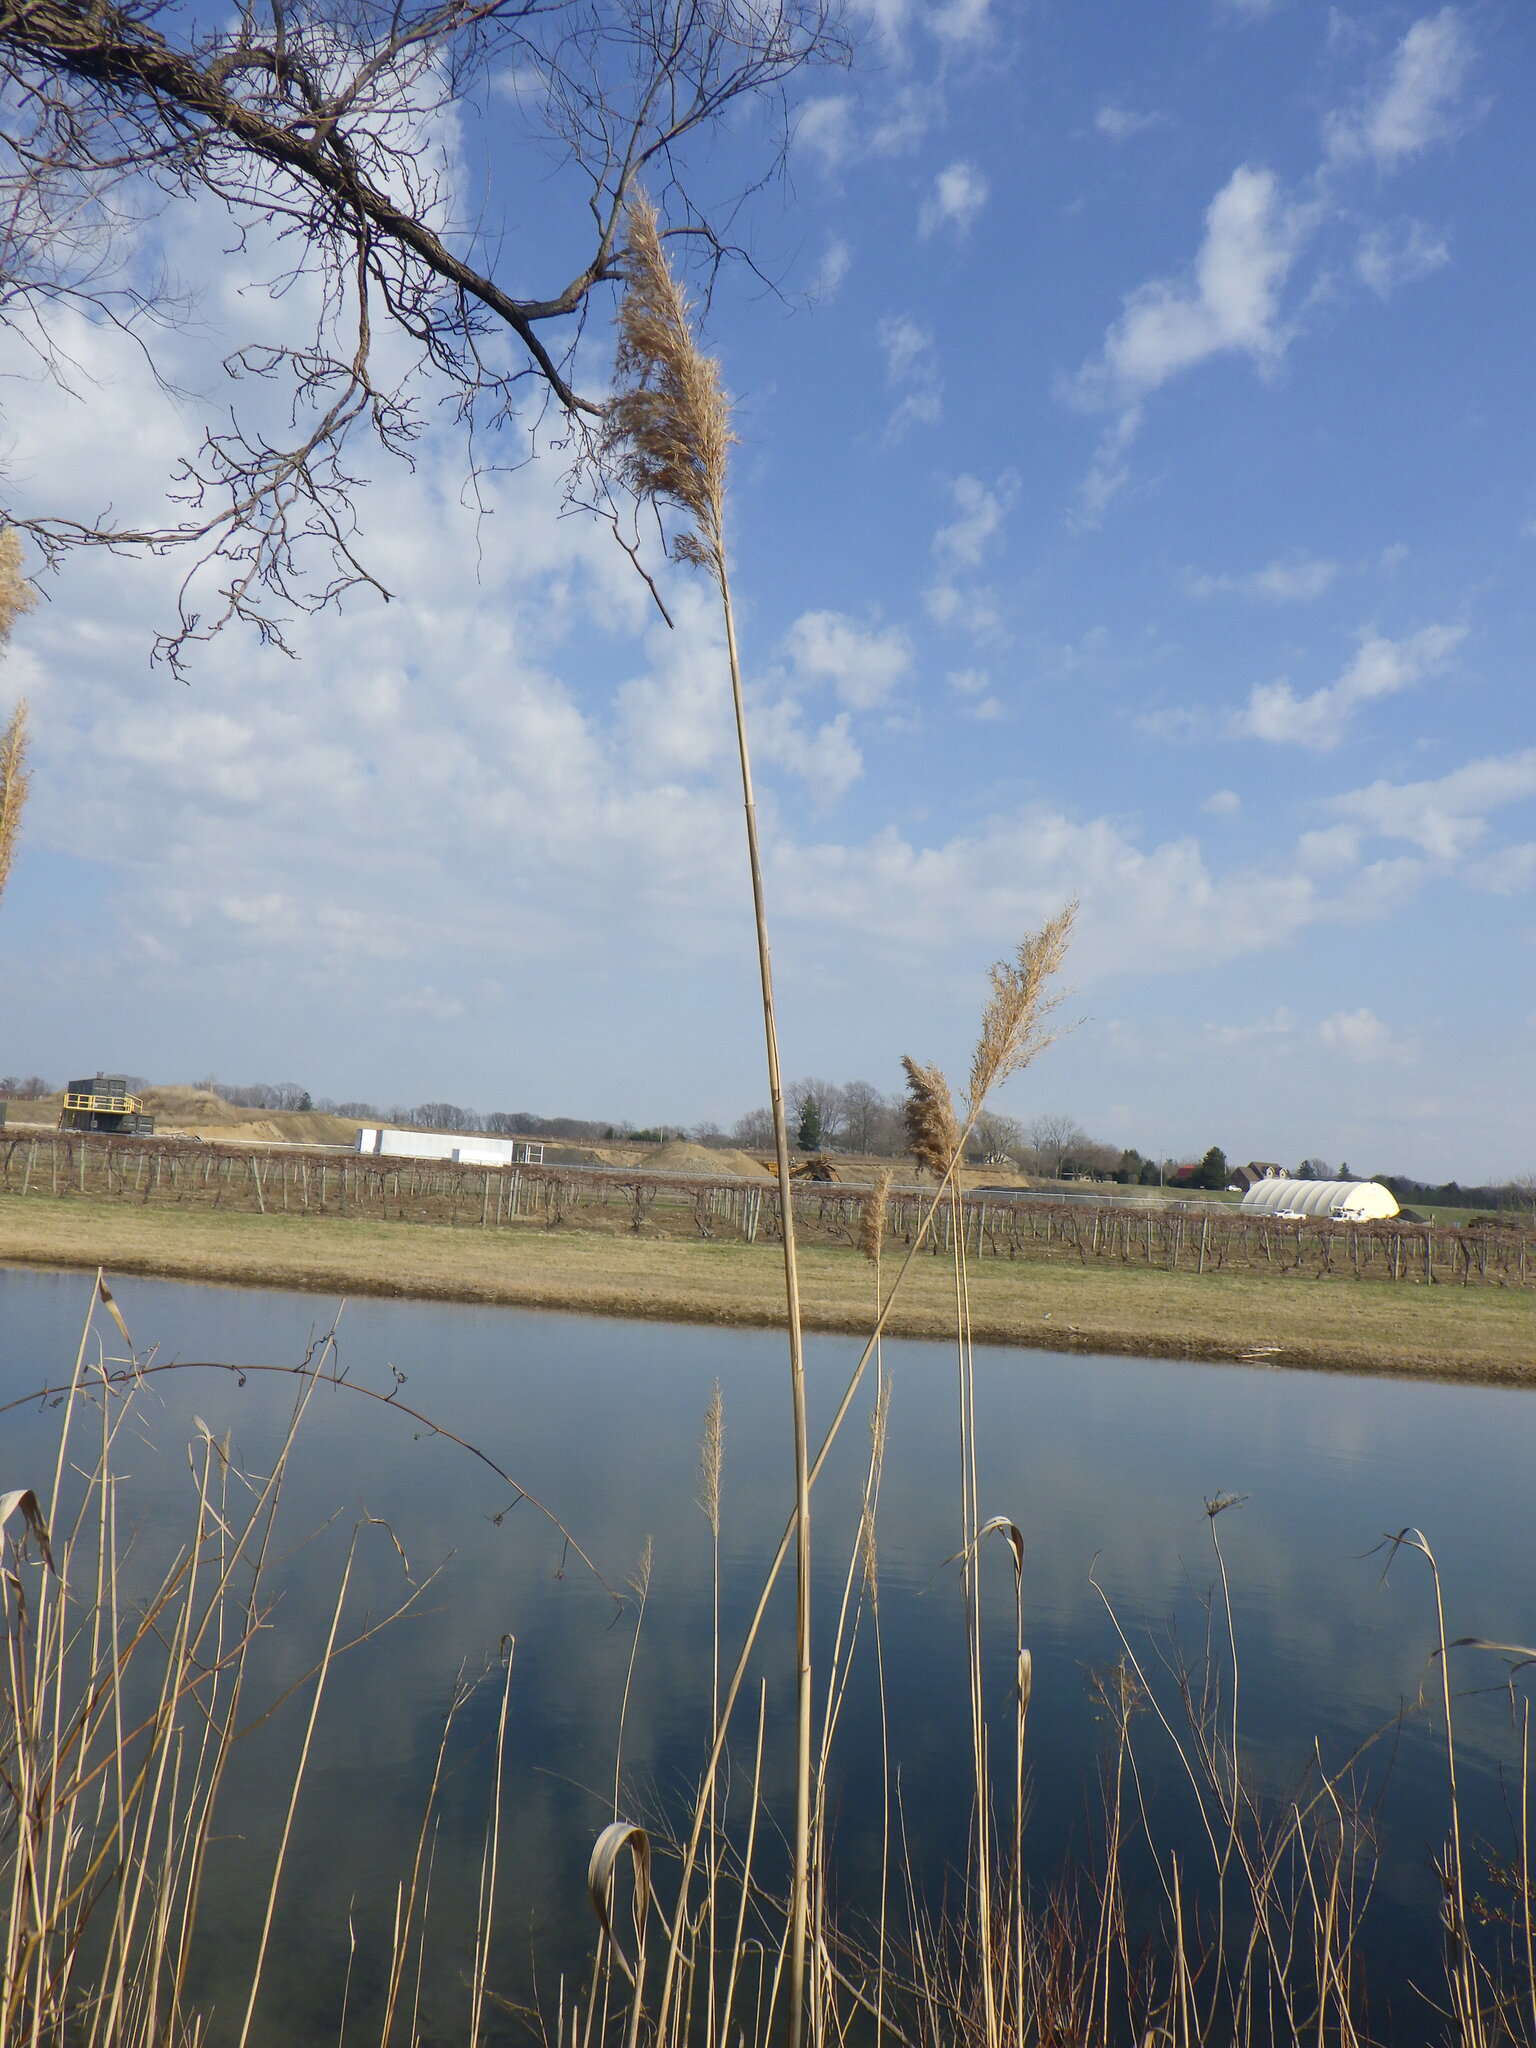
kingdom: Plantae
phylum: Tracheophyta
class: Liliopsida
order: Poales
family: Poaceae
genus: Phragmites
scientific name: Phragmites australis
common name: Common reed
